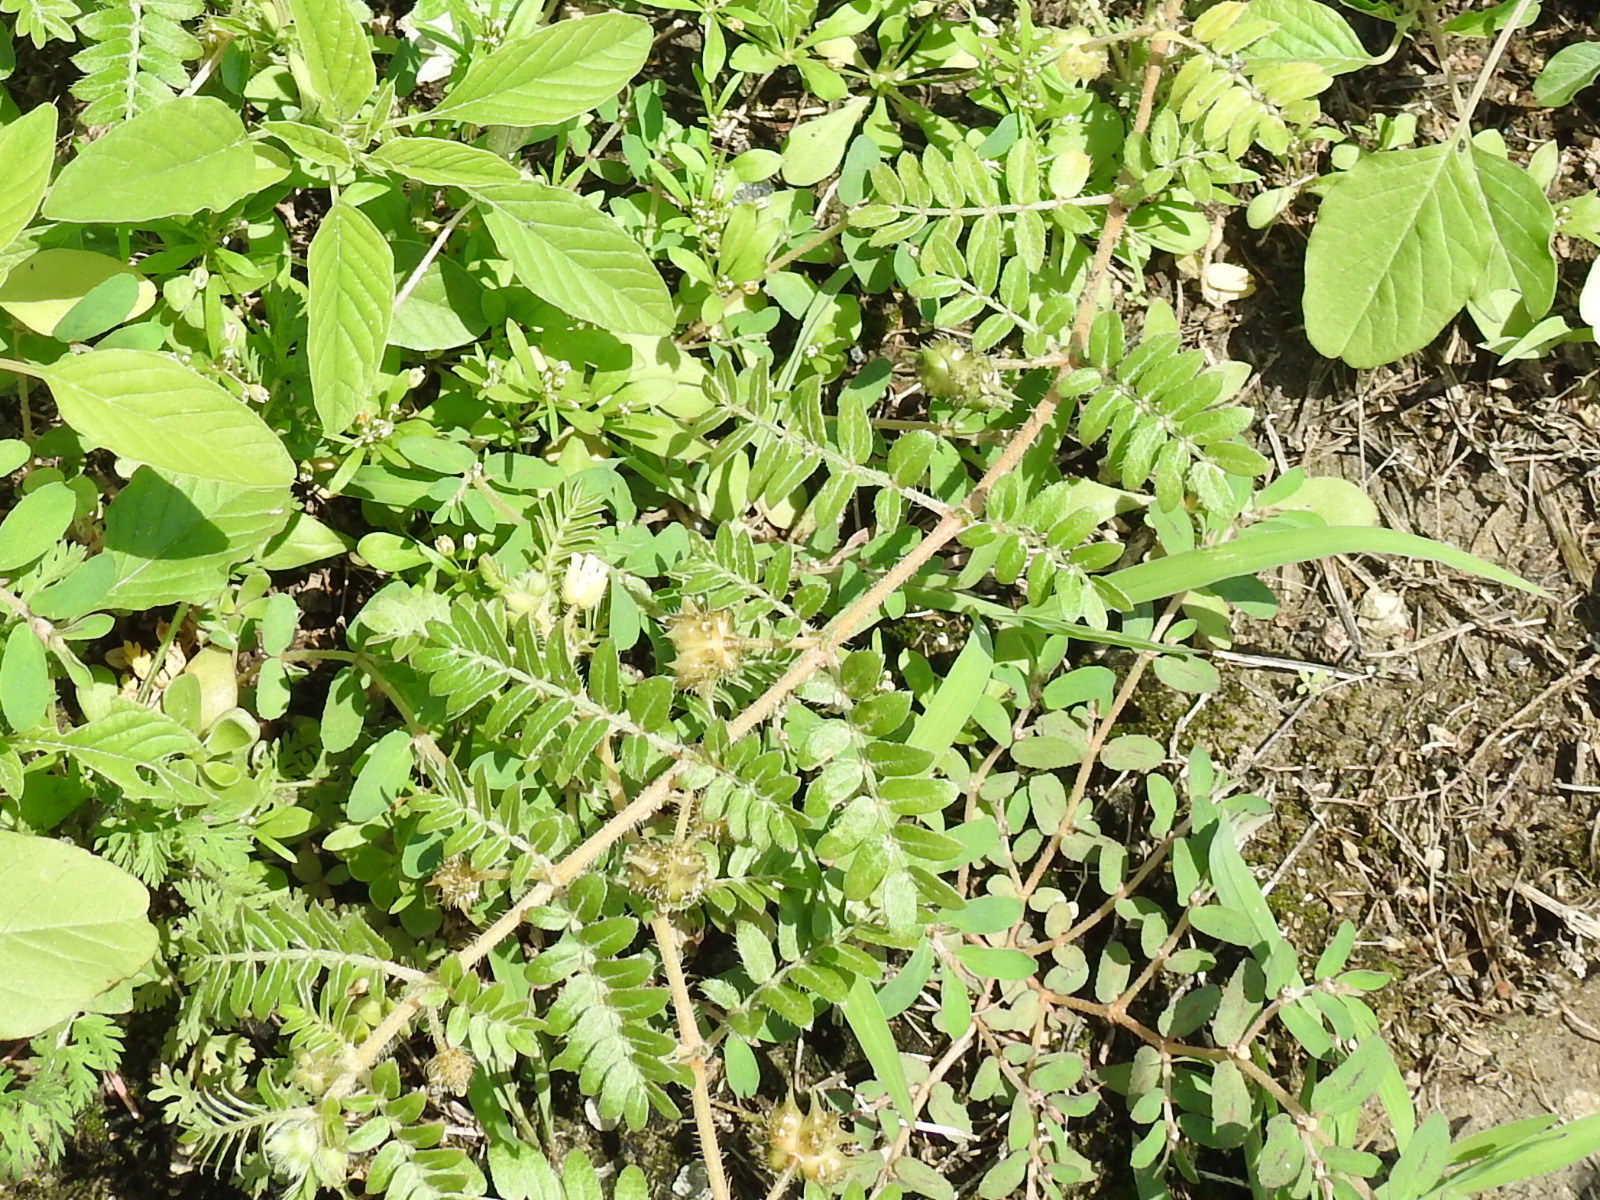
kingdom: Plantae
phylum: Tracheophyta
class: Magnoliopsida
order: Zygophyllales
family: Zygophyllaceae
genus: Tribulus
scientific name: Tribulus terrestris
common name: Puncturevine
